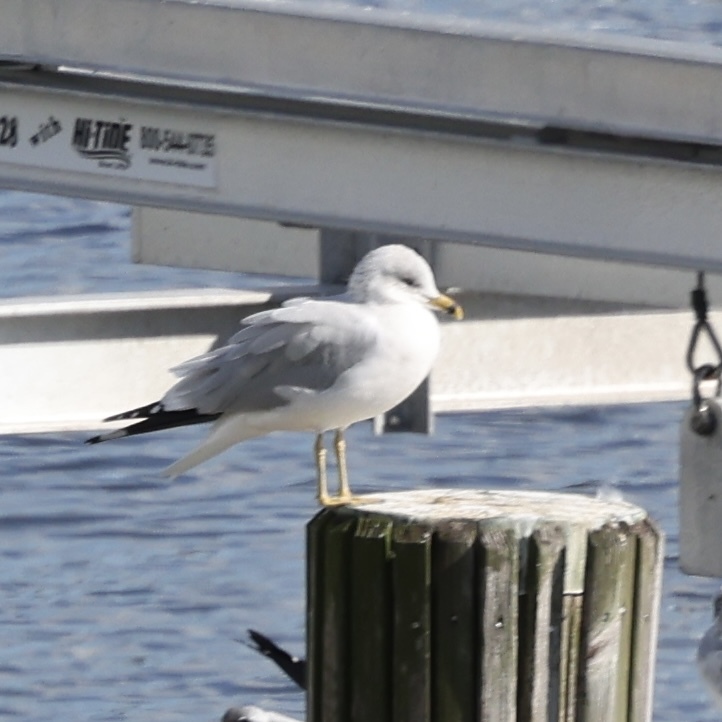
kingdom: Animalia
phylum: Chordata
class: Aves
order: Charadriiformes
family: Laridae
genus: Larus
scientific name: Larus delawarensis
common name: Ring-billed gull
